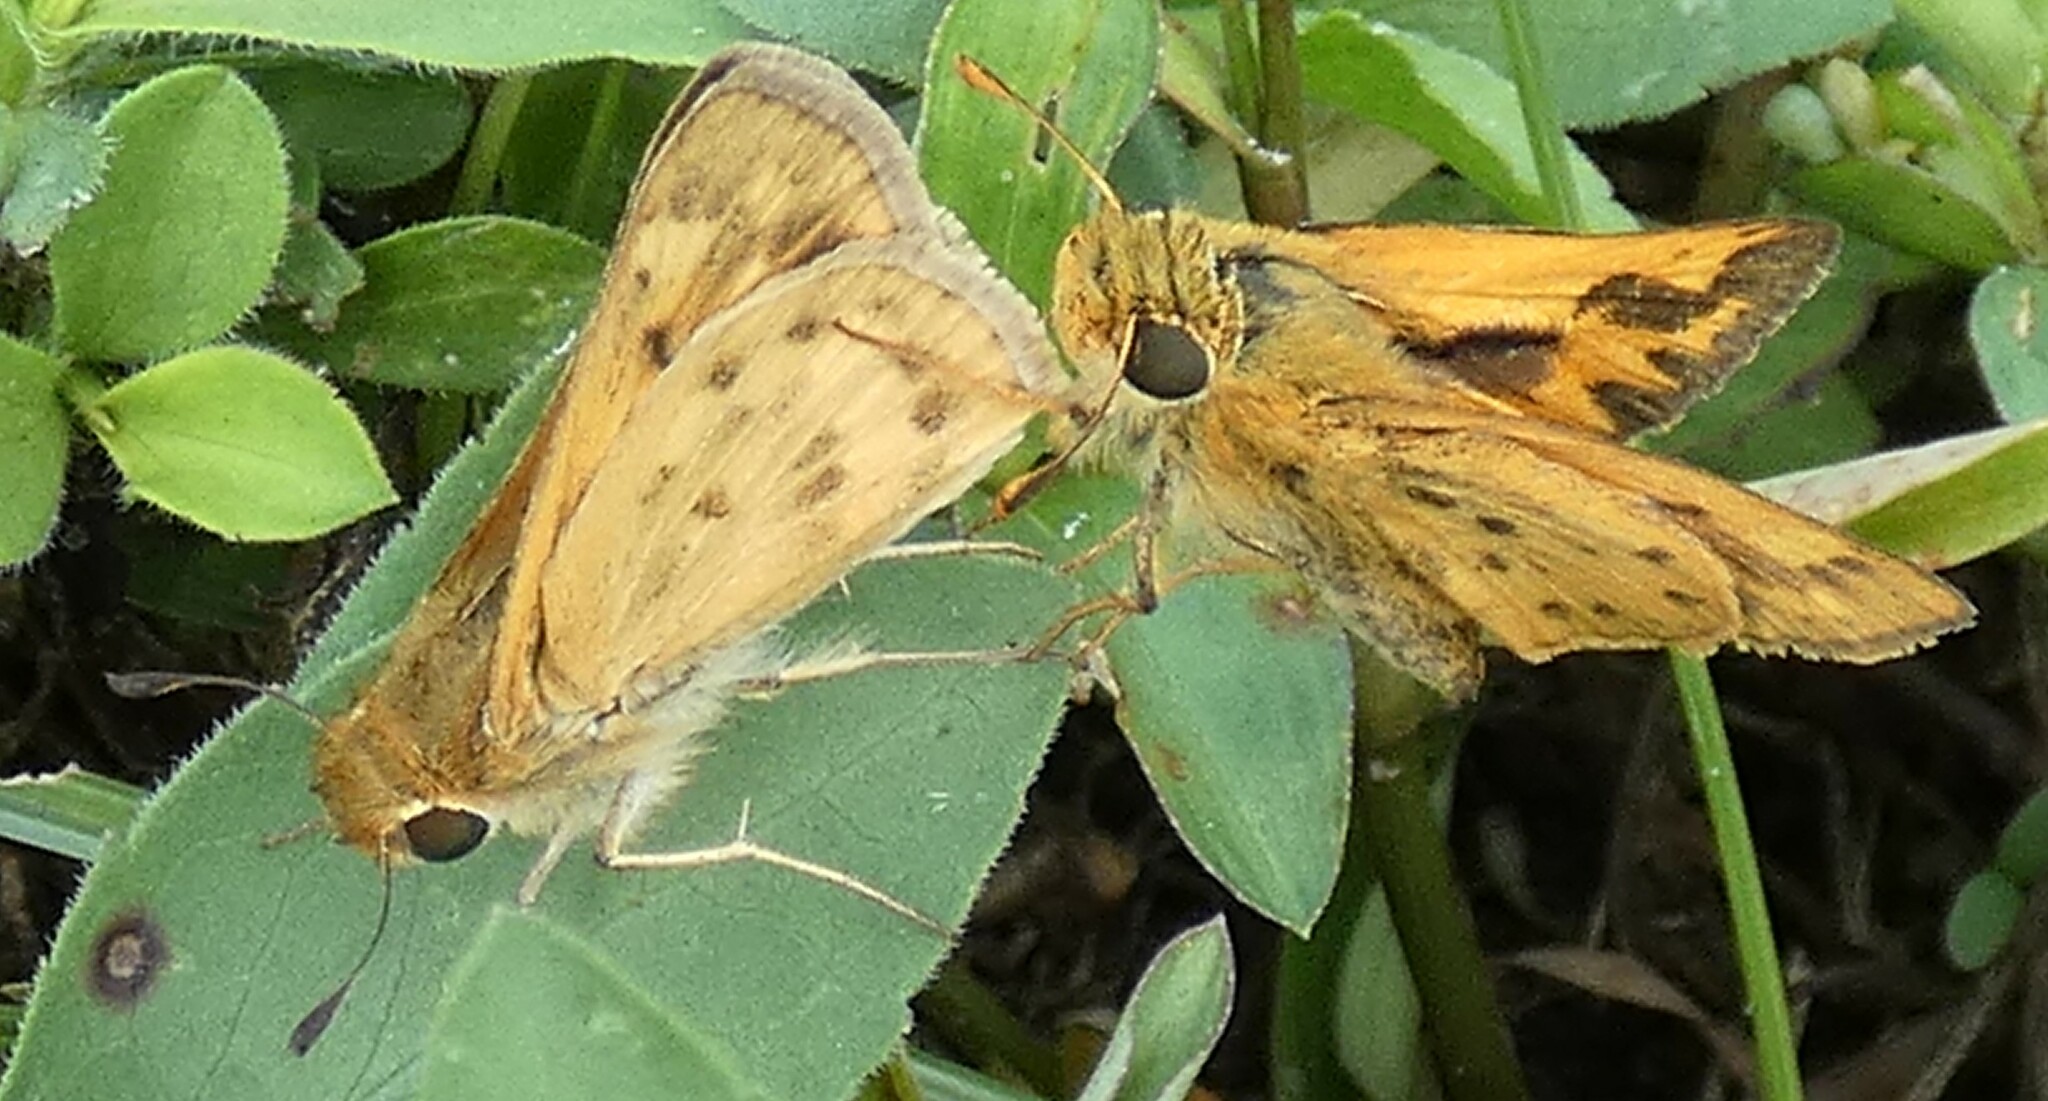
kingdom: Animalia
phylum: Arthropoda
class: Insecta
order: Lepidoptera
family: Hesperiidae
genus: Hylephila
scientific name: Hylephila phyleus
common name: Fiery skipper
